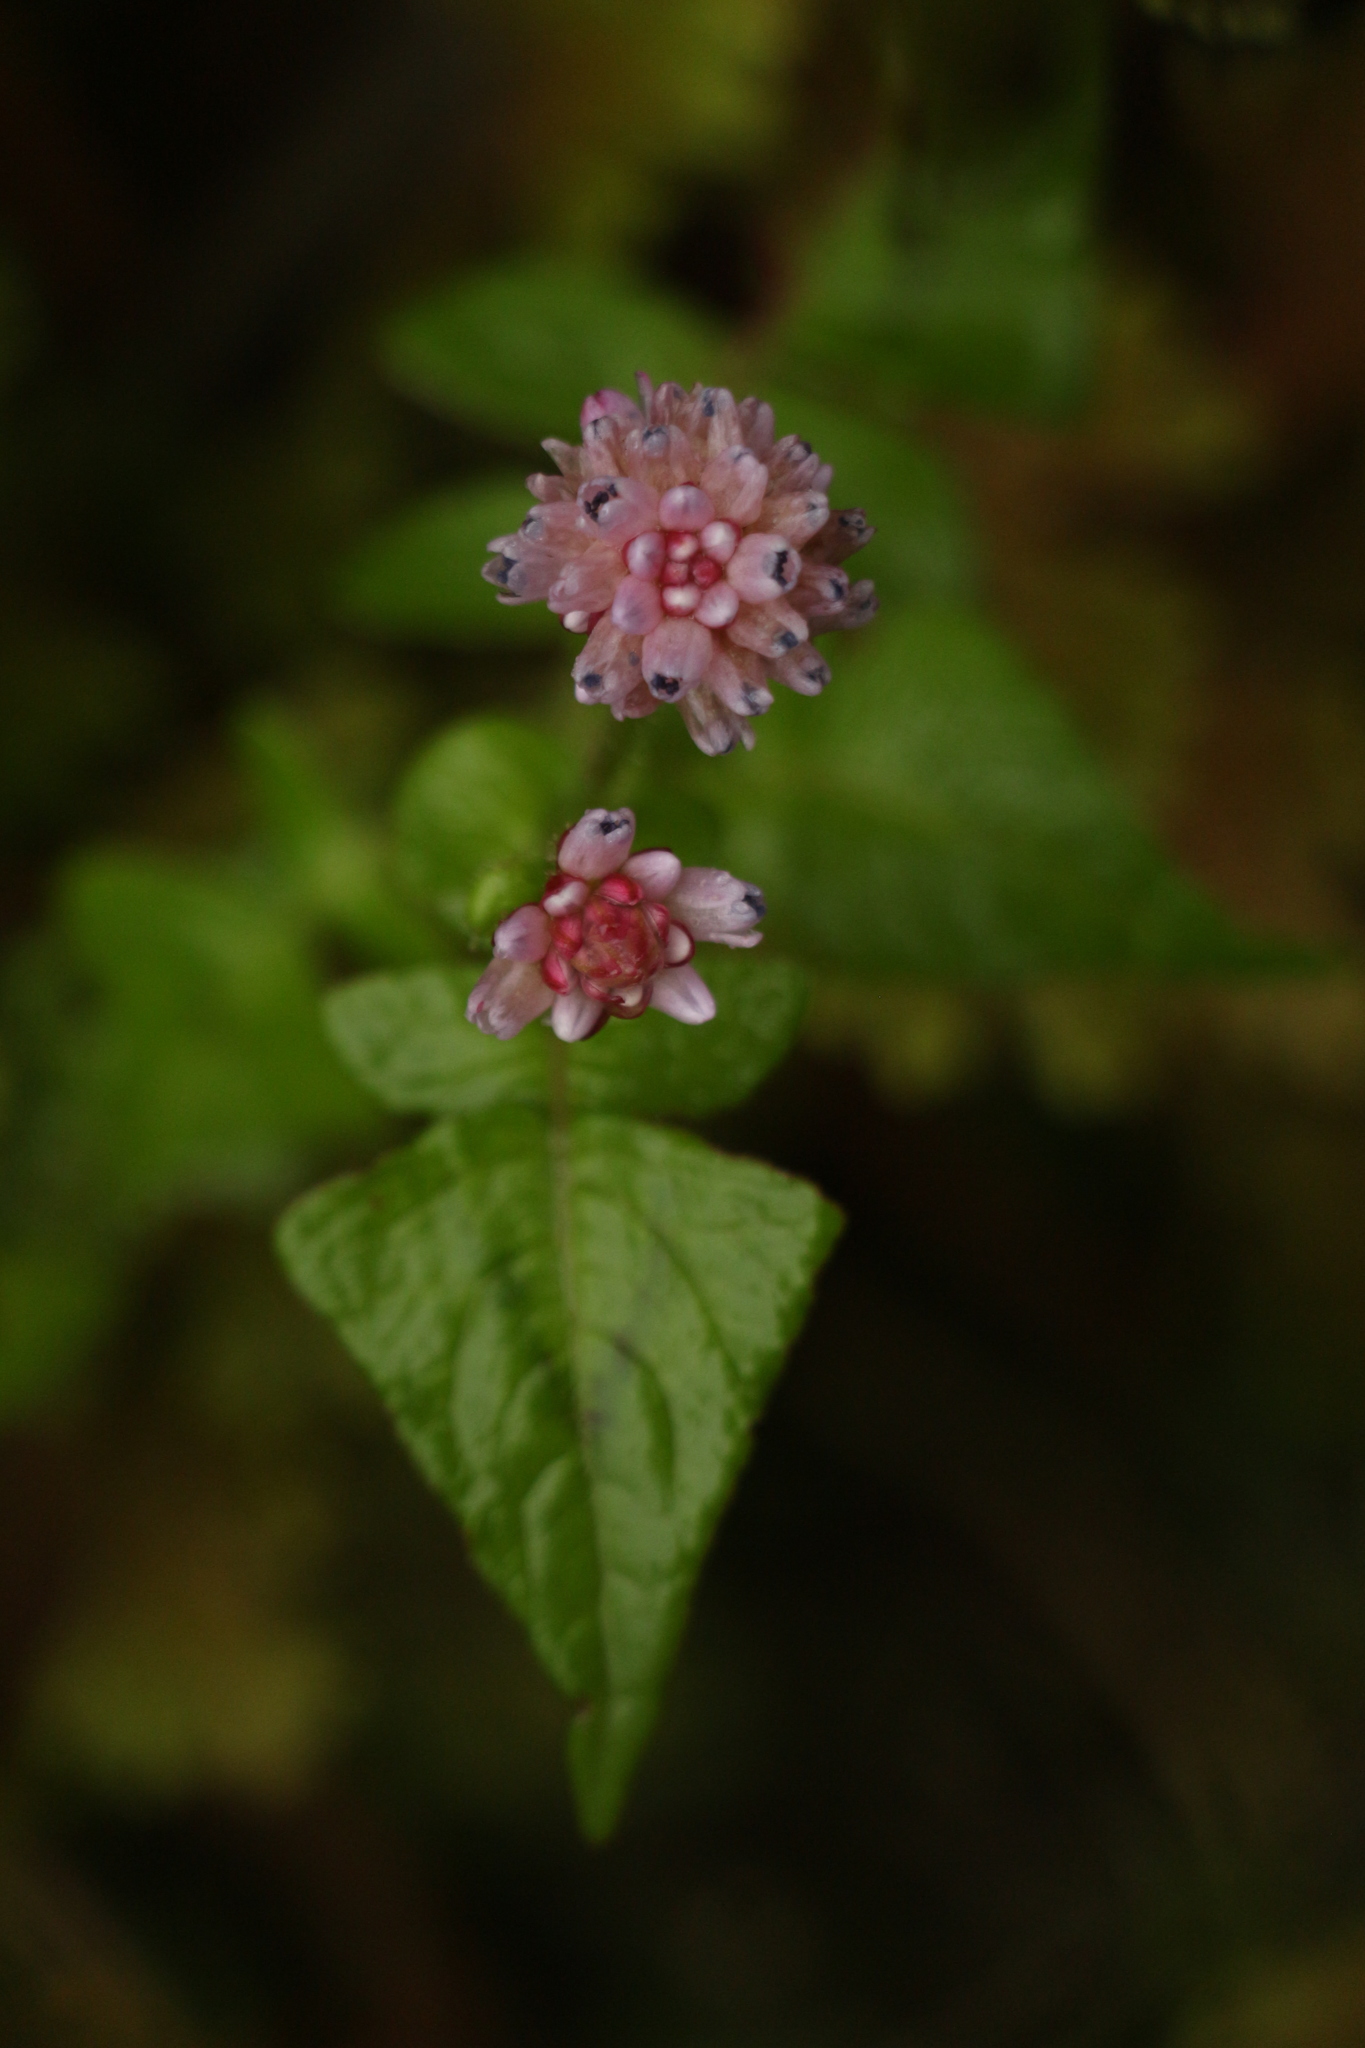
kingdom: Plantae
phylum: Tracheophyta
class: Magnoliopsida
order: Caryophyllales
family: Polygonaceae
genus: Persicaria
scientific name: Persicaria capitata
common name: Pinkhead smartweed
